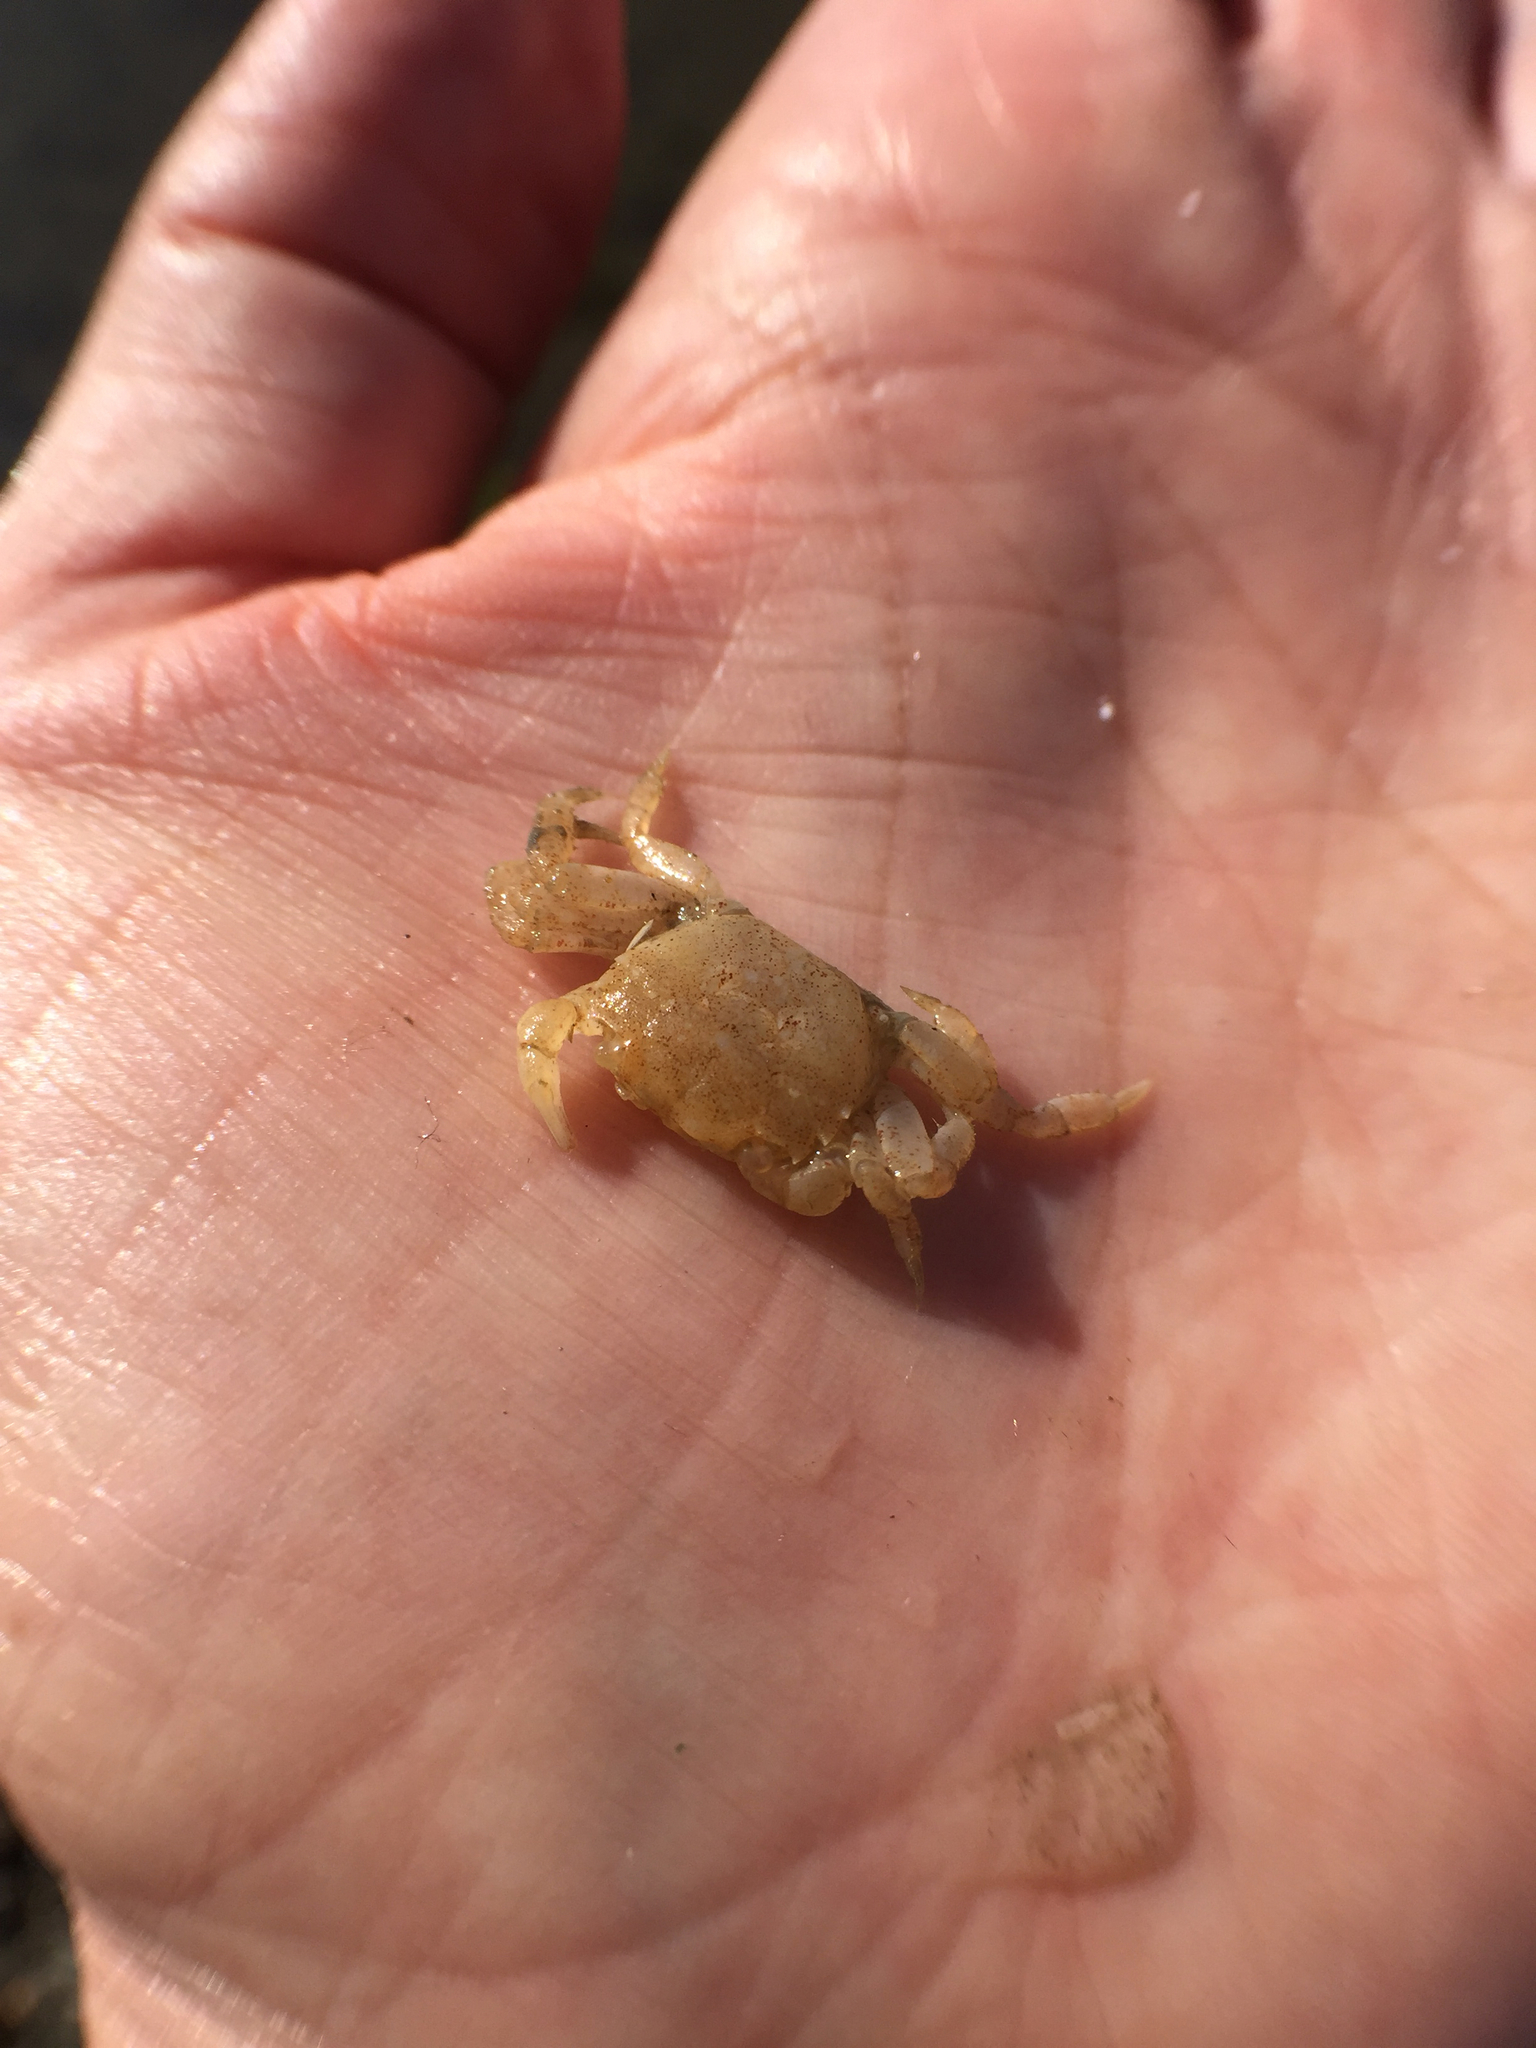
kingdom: Animalia
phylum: Arthropoda
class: Malacostraca
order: Decapoda
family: Varunidae
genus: Hemigrapsus
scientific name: Hemigrapsus oregonensis
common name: Yellow shore crab
